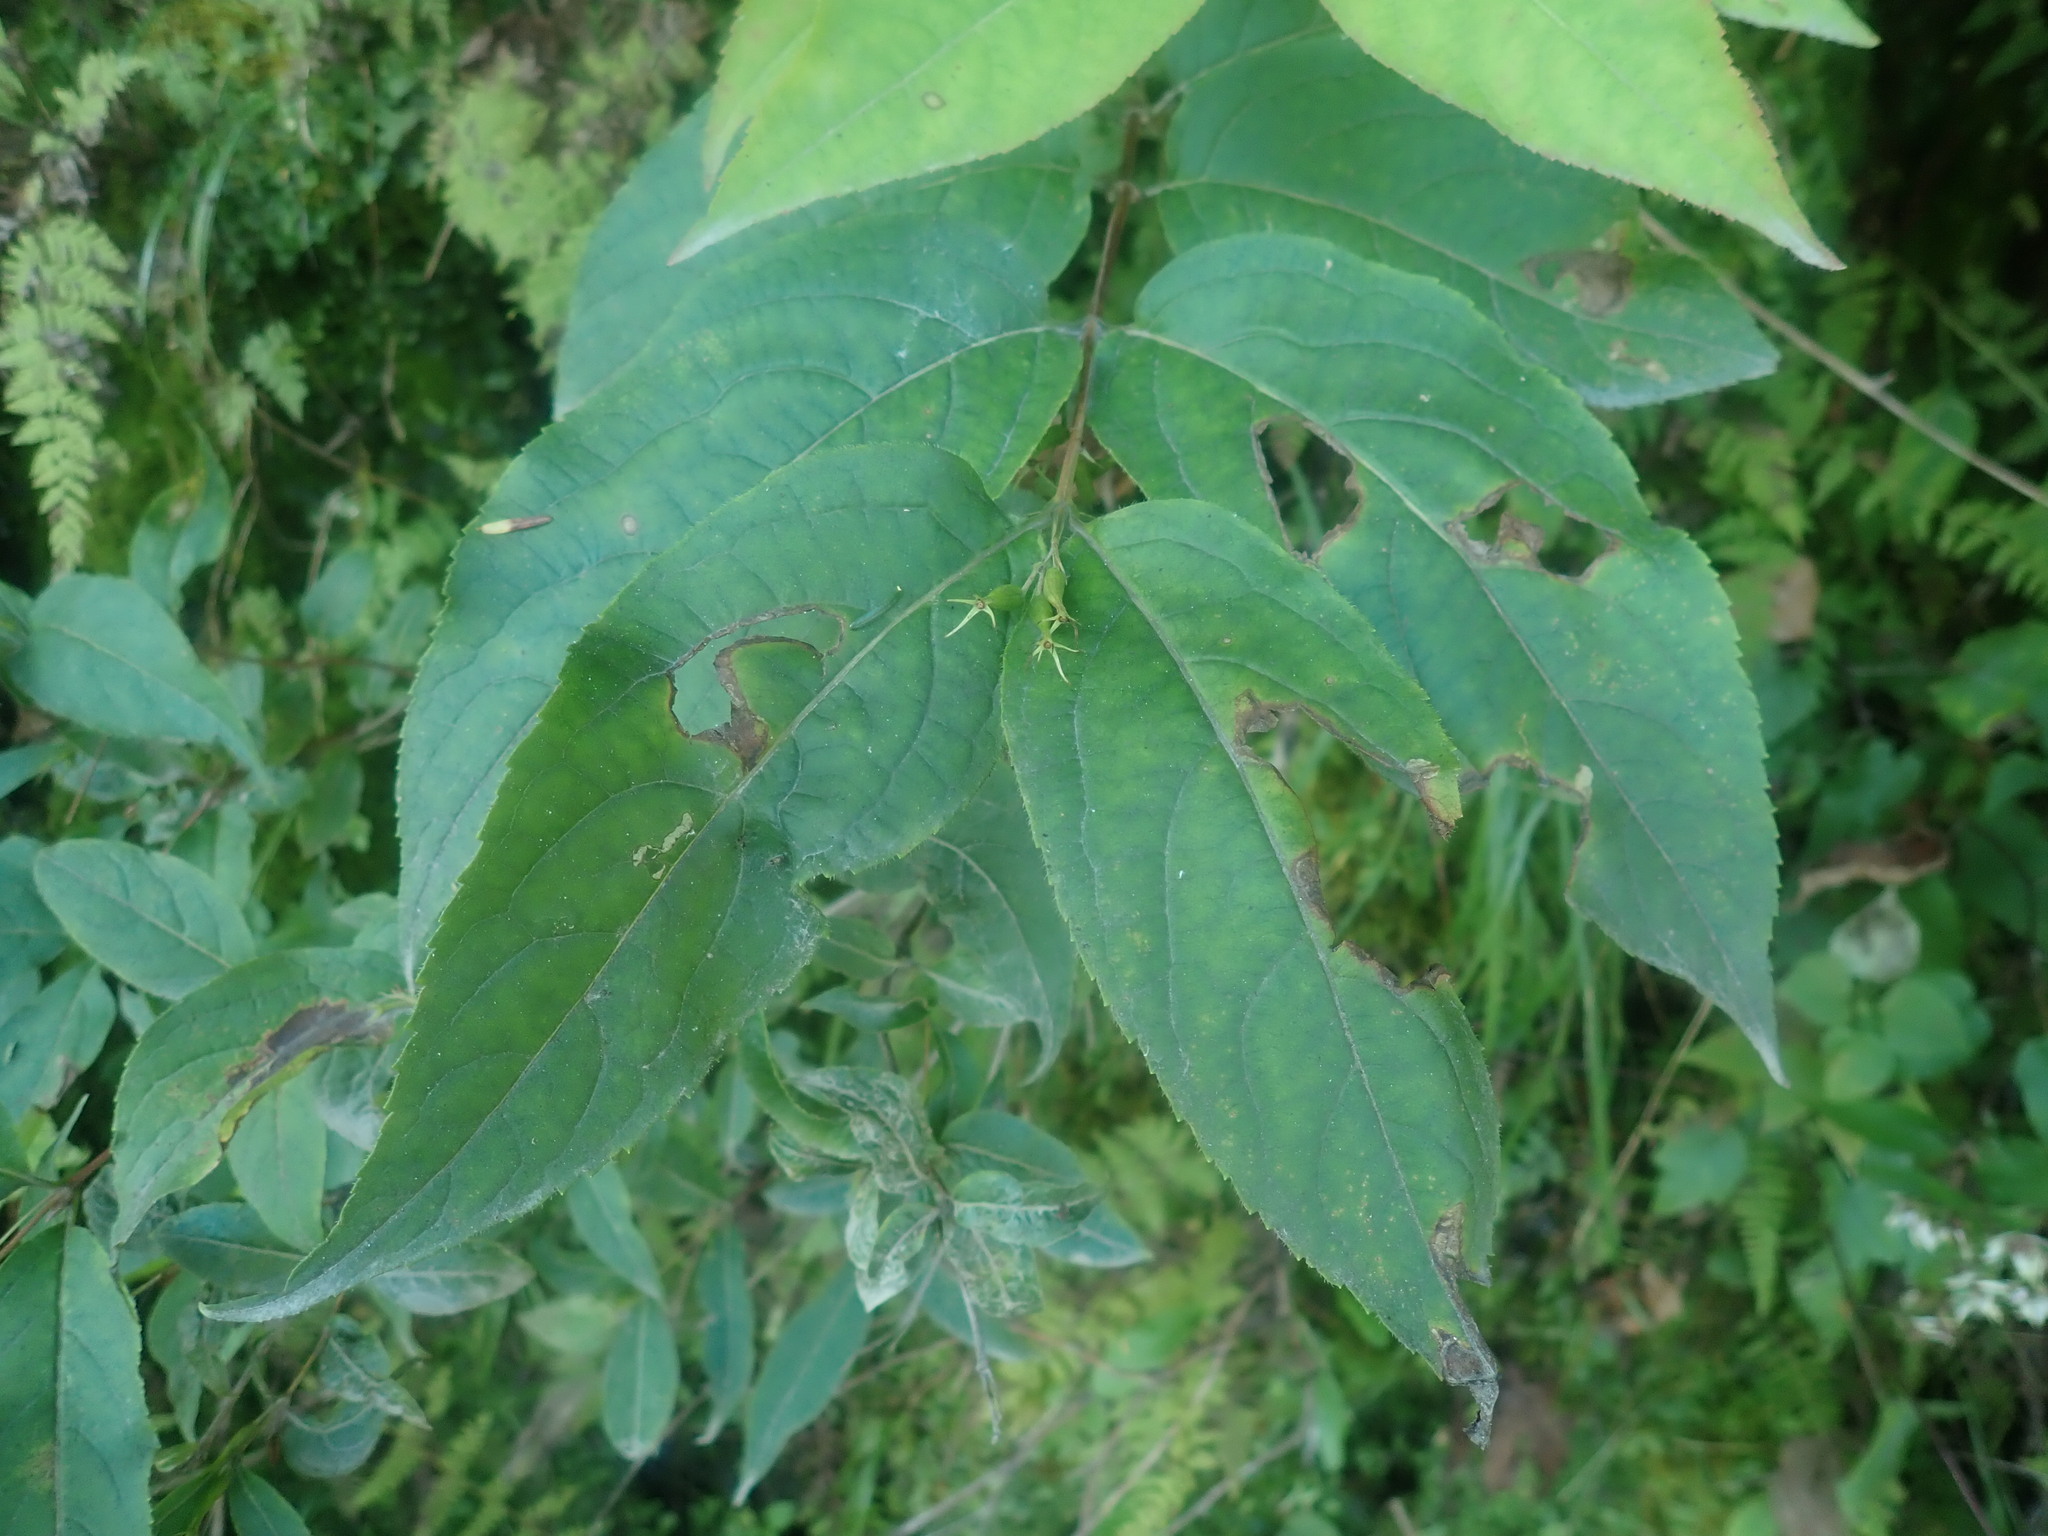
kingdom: Plantae
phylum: Tracheophyta
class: Magnoliopsida
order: Dipsacales
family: Caprifoliaceae
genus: Diervilla
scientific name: Diervilla lonicera
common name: Bush-honeysuckle
